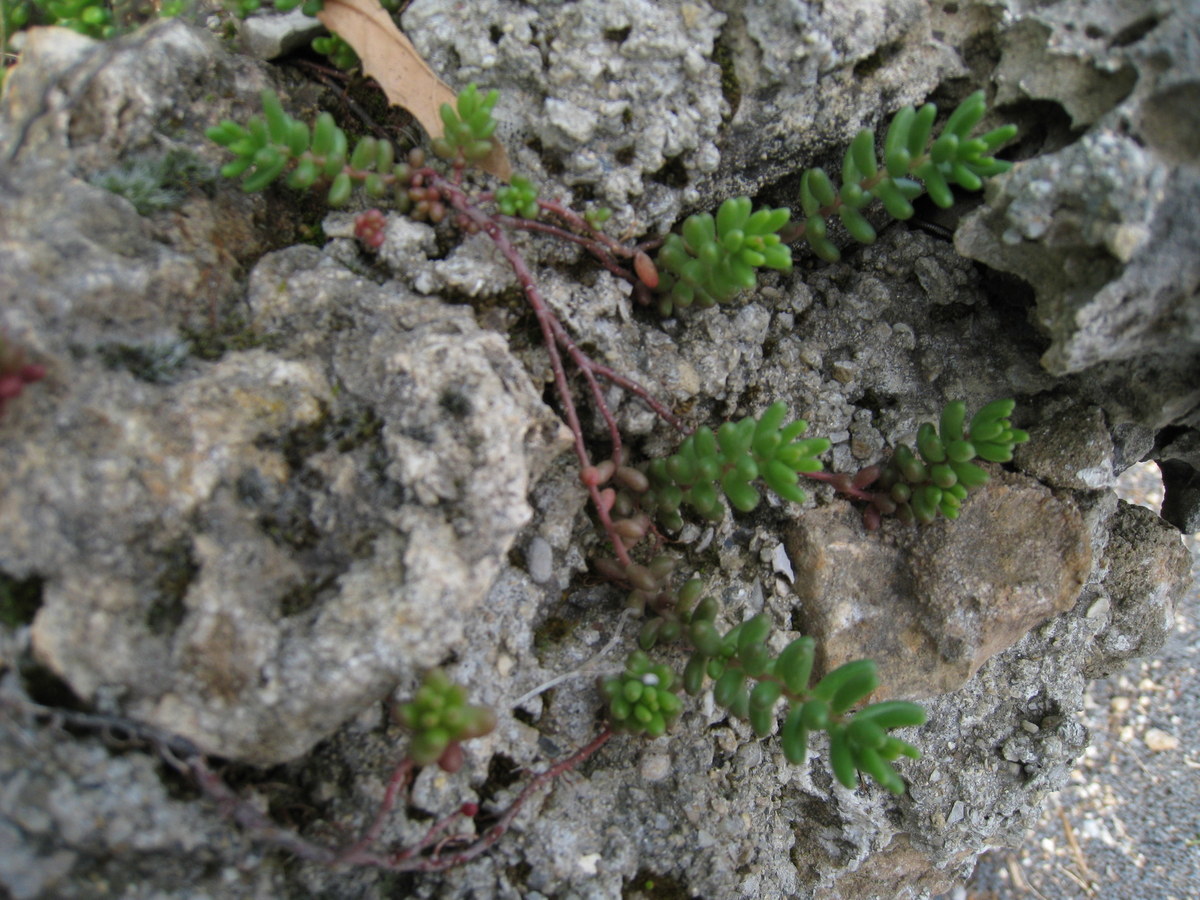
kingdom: Plantae
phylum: Tracheophyta
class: Magnoliopsida
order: Saxifragales
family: Crassulaceae
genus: Sedum
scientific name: Sedum album
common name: White stonecrop
